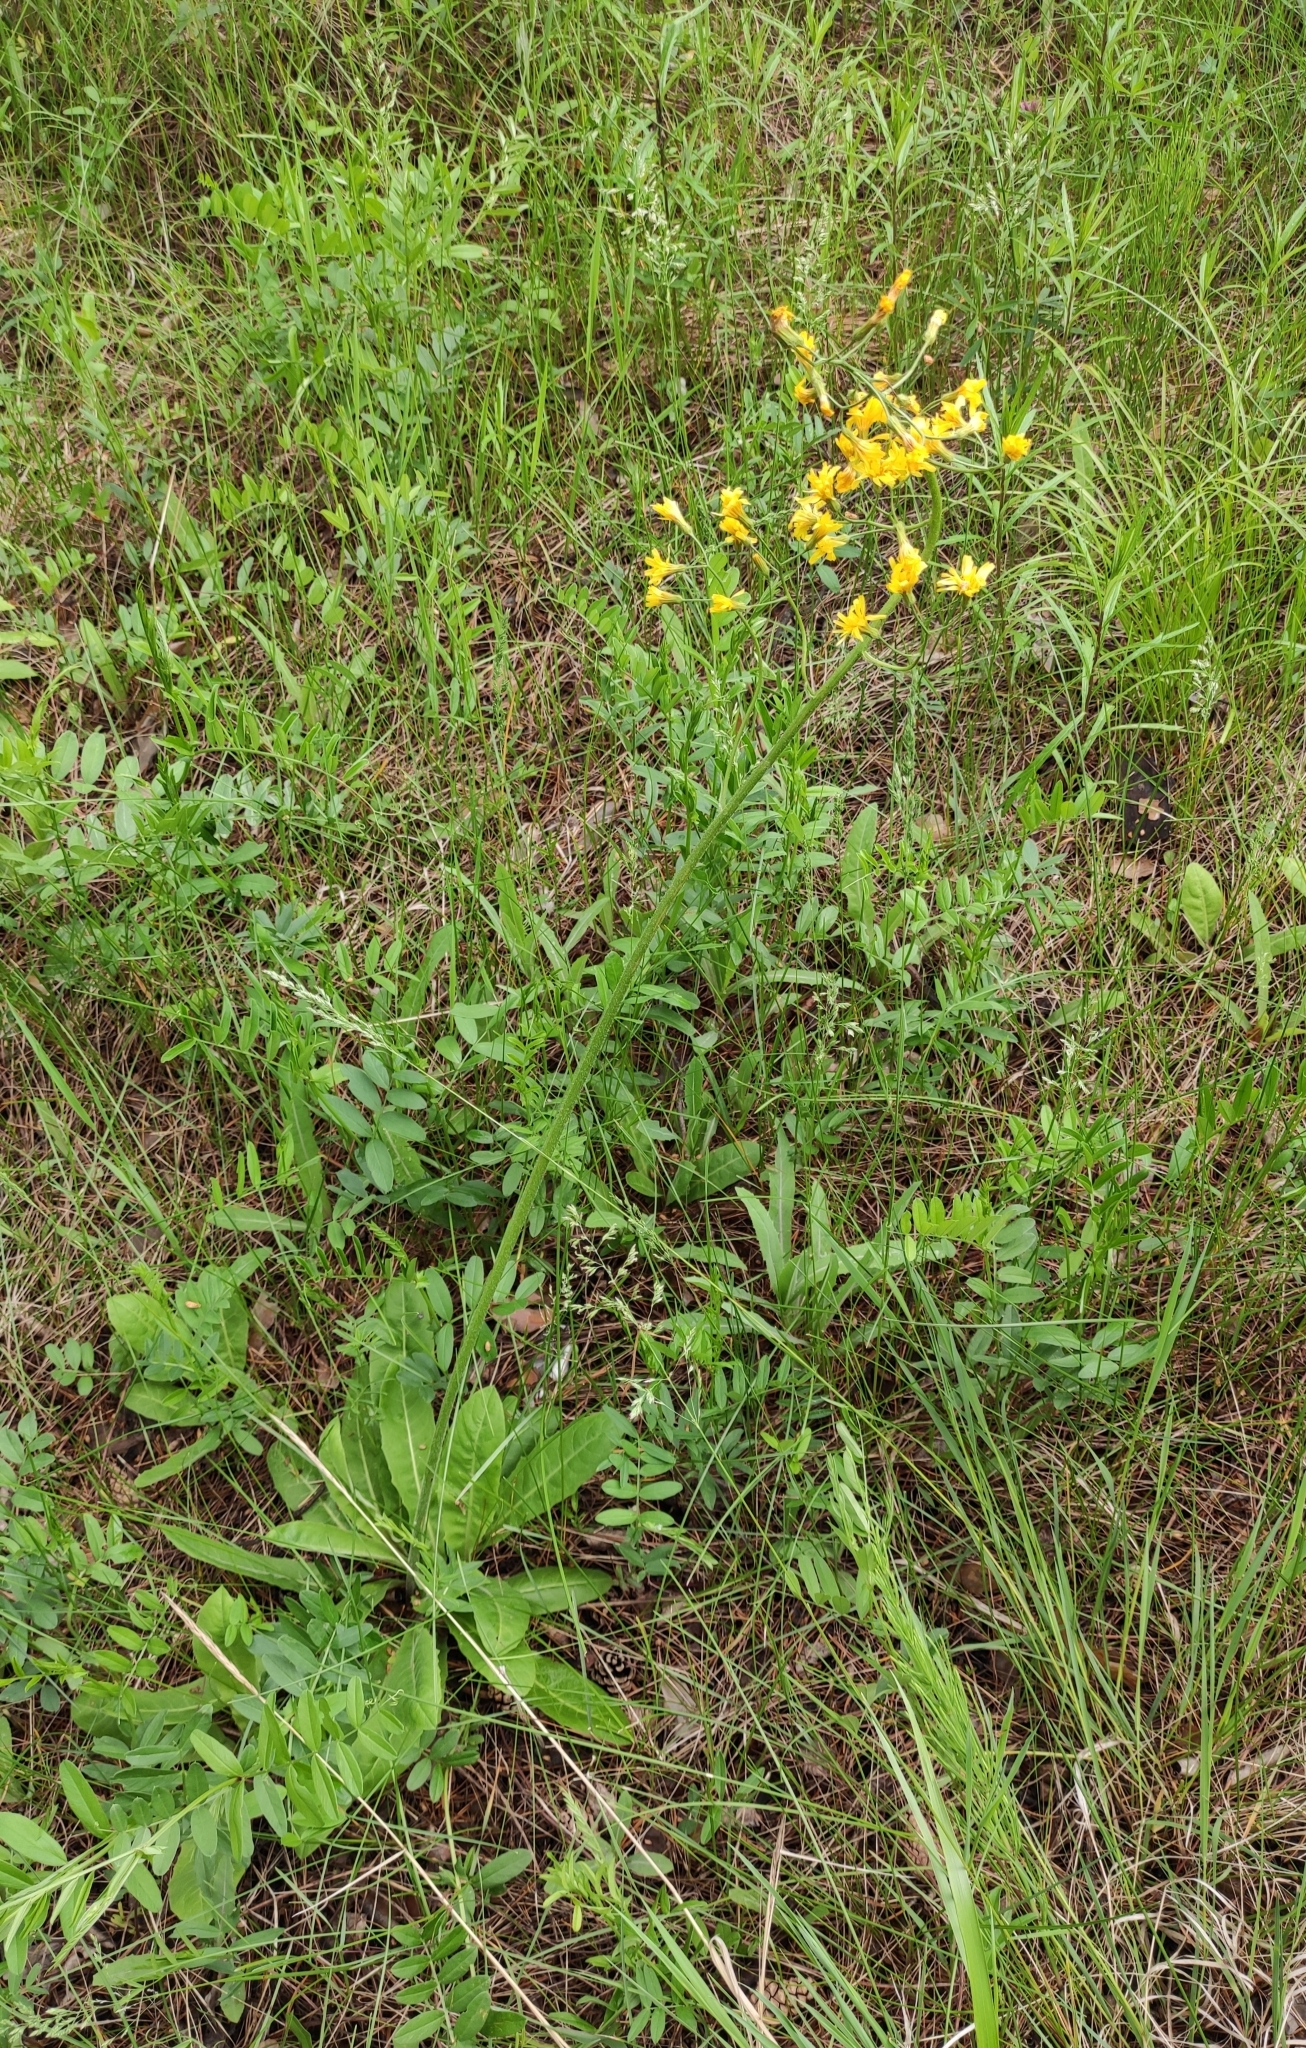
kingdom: Plantae
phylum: Tracheophyta
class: Magnoliopsida
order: Asterales
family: Asteraceae
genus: Crepis
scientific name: Crepis praemorsa
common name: Leafless hawk's-beard
